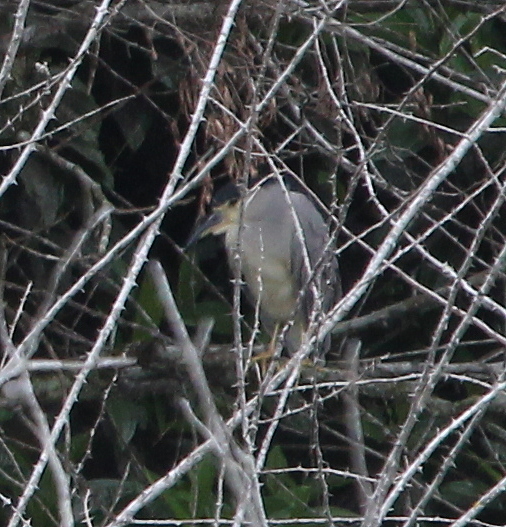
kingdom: Animalia
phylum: Chordata
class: Aves
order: Pelecaniformes
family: Ardeidae
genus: Nycticorax
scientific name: Nycticorax nycticorax
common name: Black-crowned night heron
